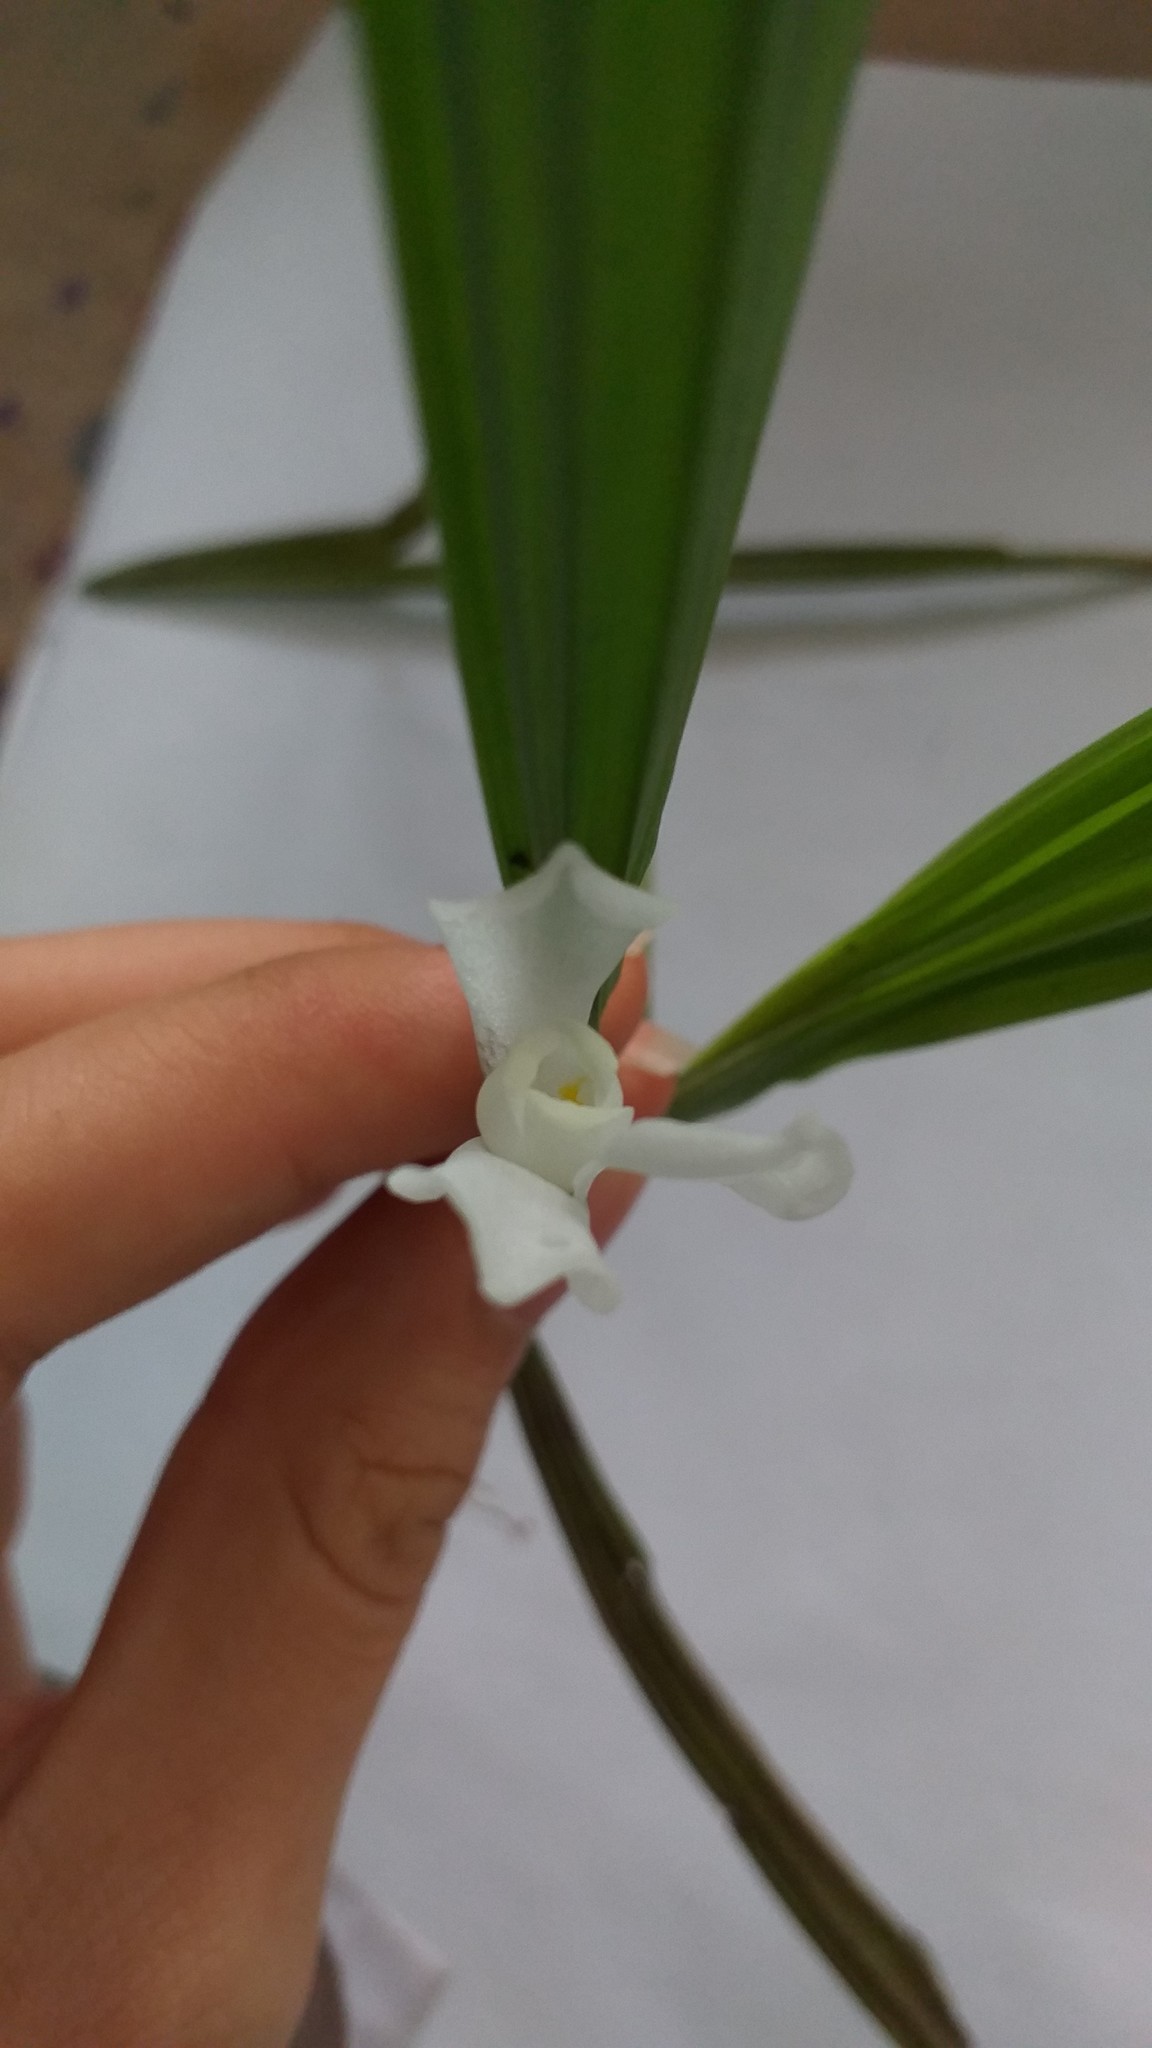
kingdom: Plantae
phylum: Tracheophyta
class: Liliopsida
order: Asparagales
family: Iridaceae
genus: Cipura
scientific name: Cipura paludosa
